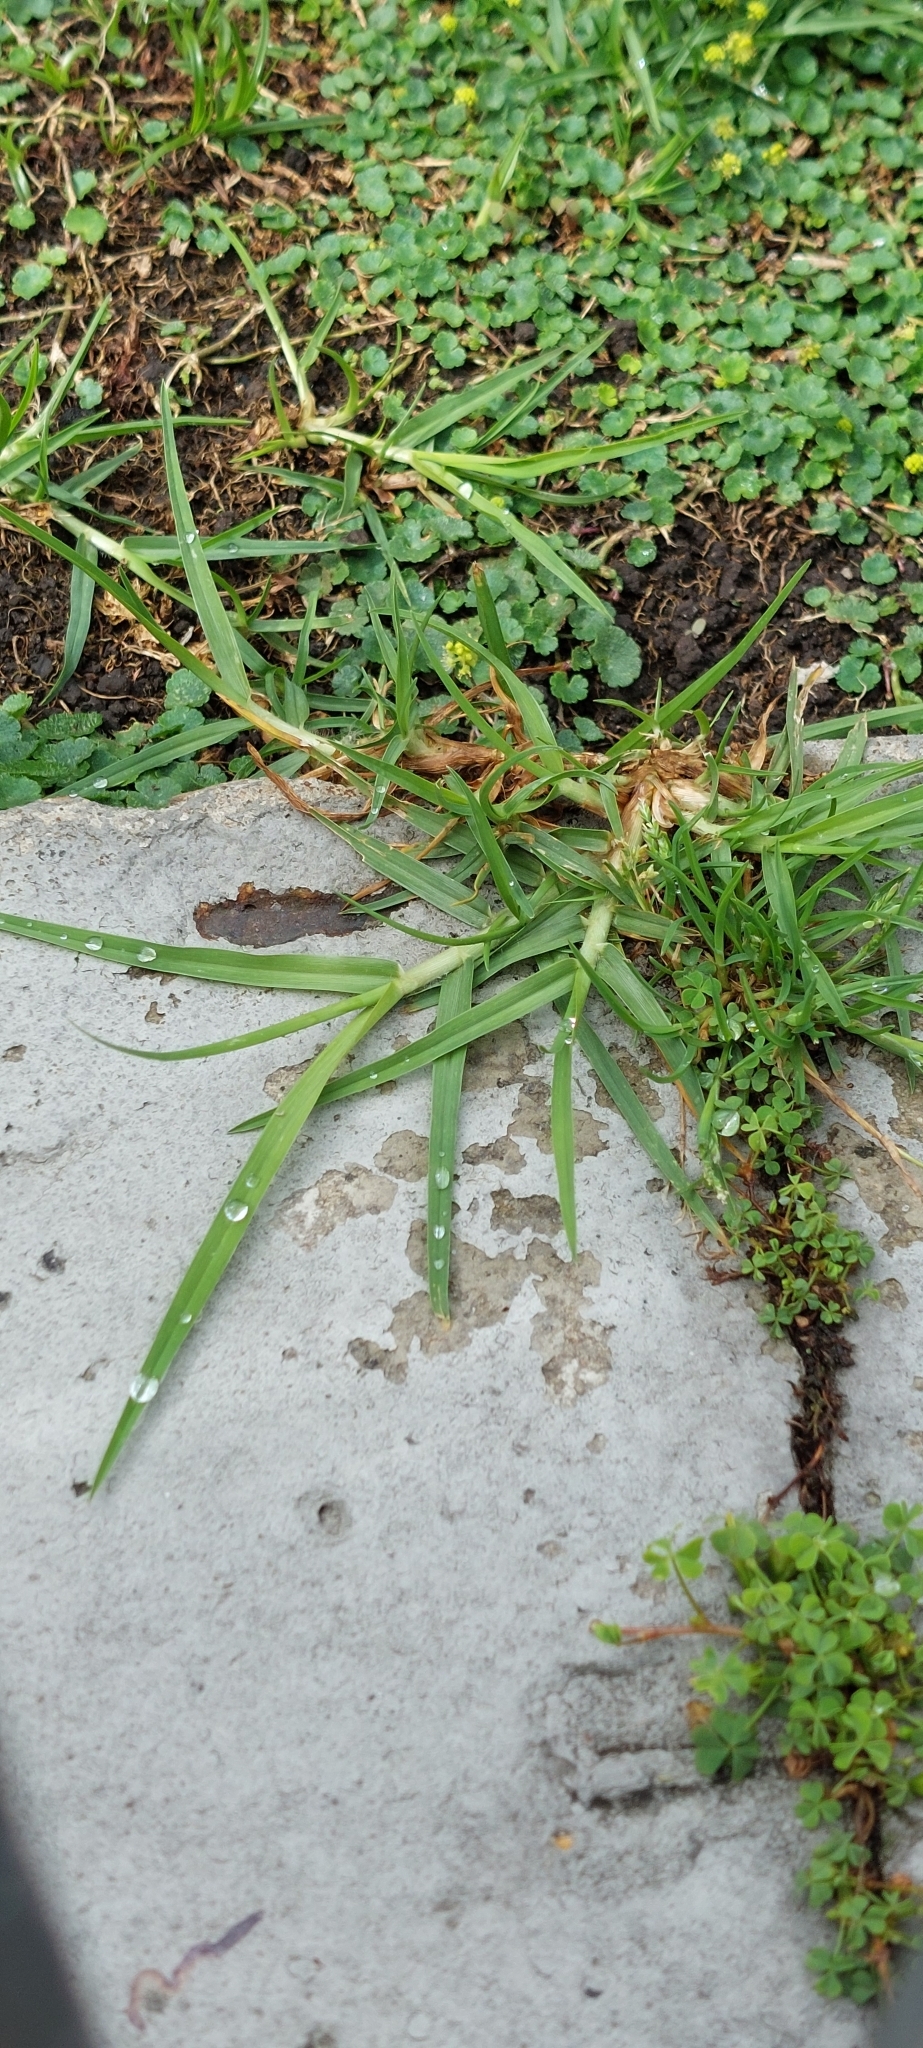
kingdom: Plantae
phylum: Tracheophyta
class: Liliopsida
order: Poales
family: Poaceae
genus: Cenchrus
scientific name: Cenchrus clandestinus
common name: Kikuyugrass
